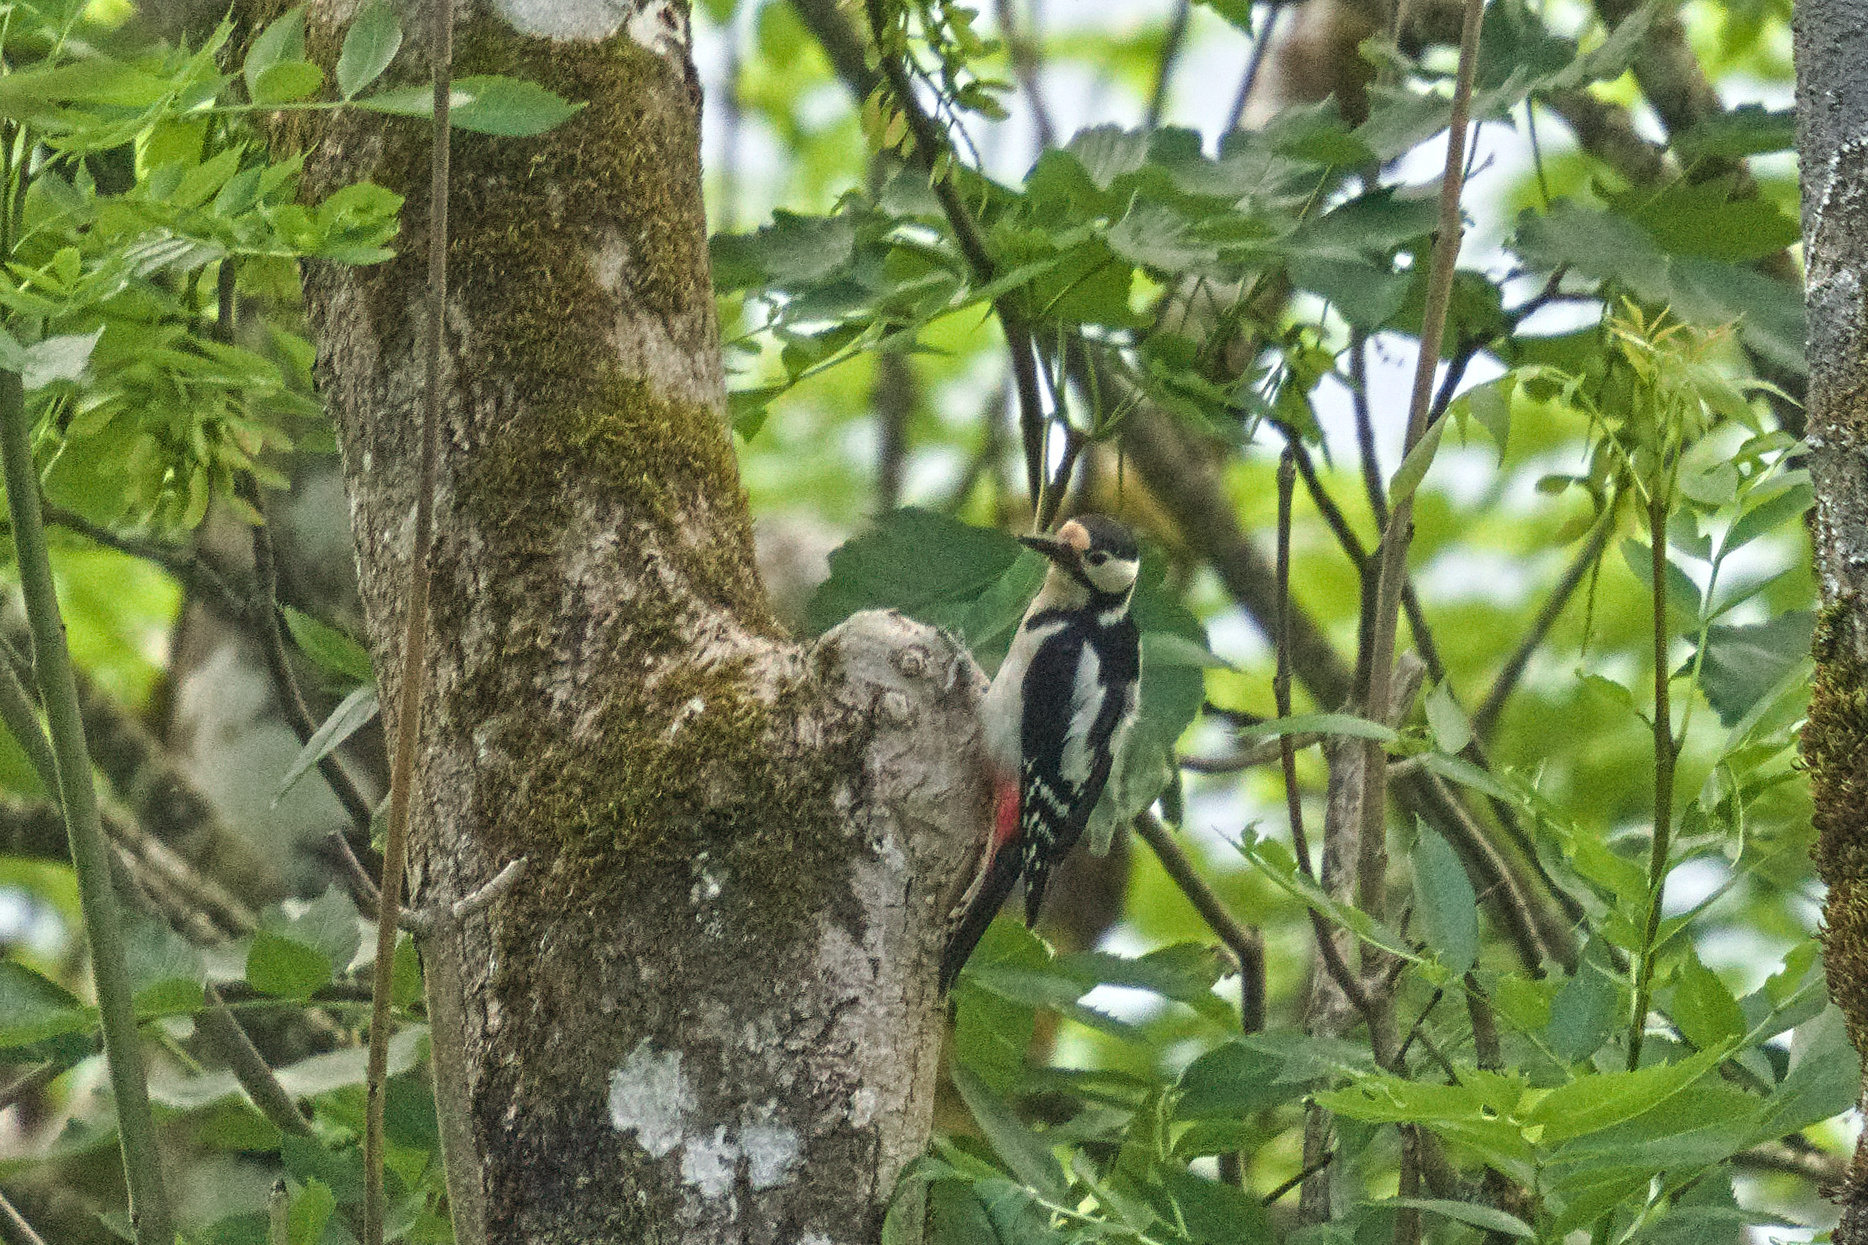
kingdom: Animalia
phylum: Chordata
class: Aves
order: Piciformes
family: Picidae
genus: Dendrocopos
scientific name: Dendrocopos major
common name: Great spotted woodpecker
